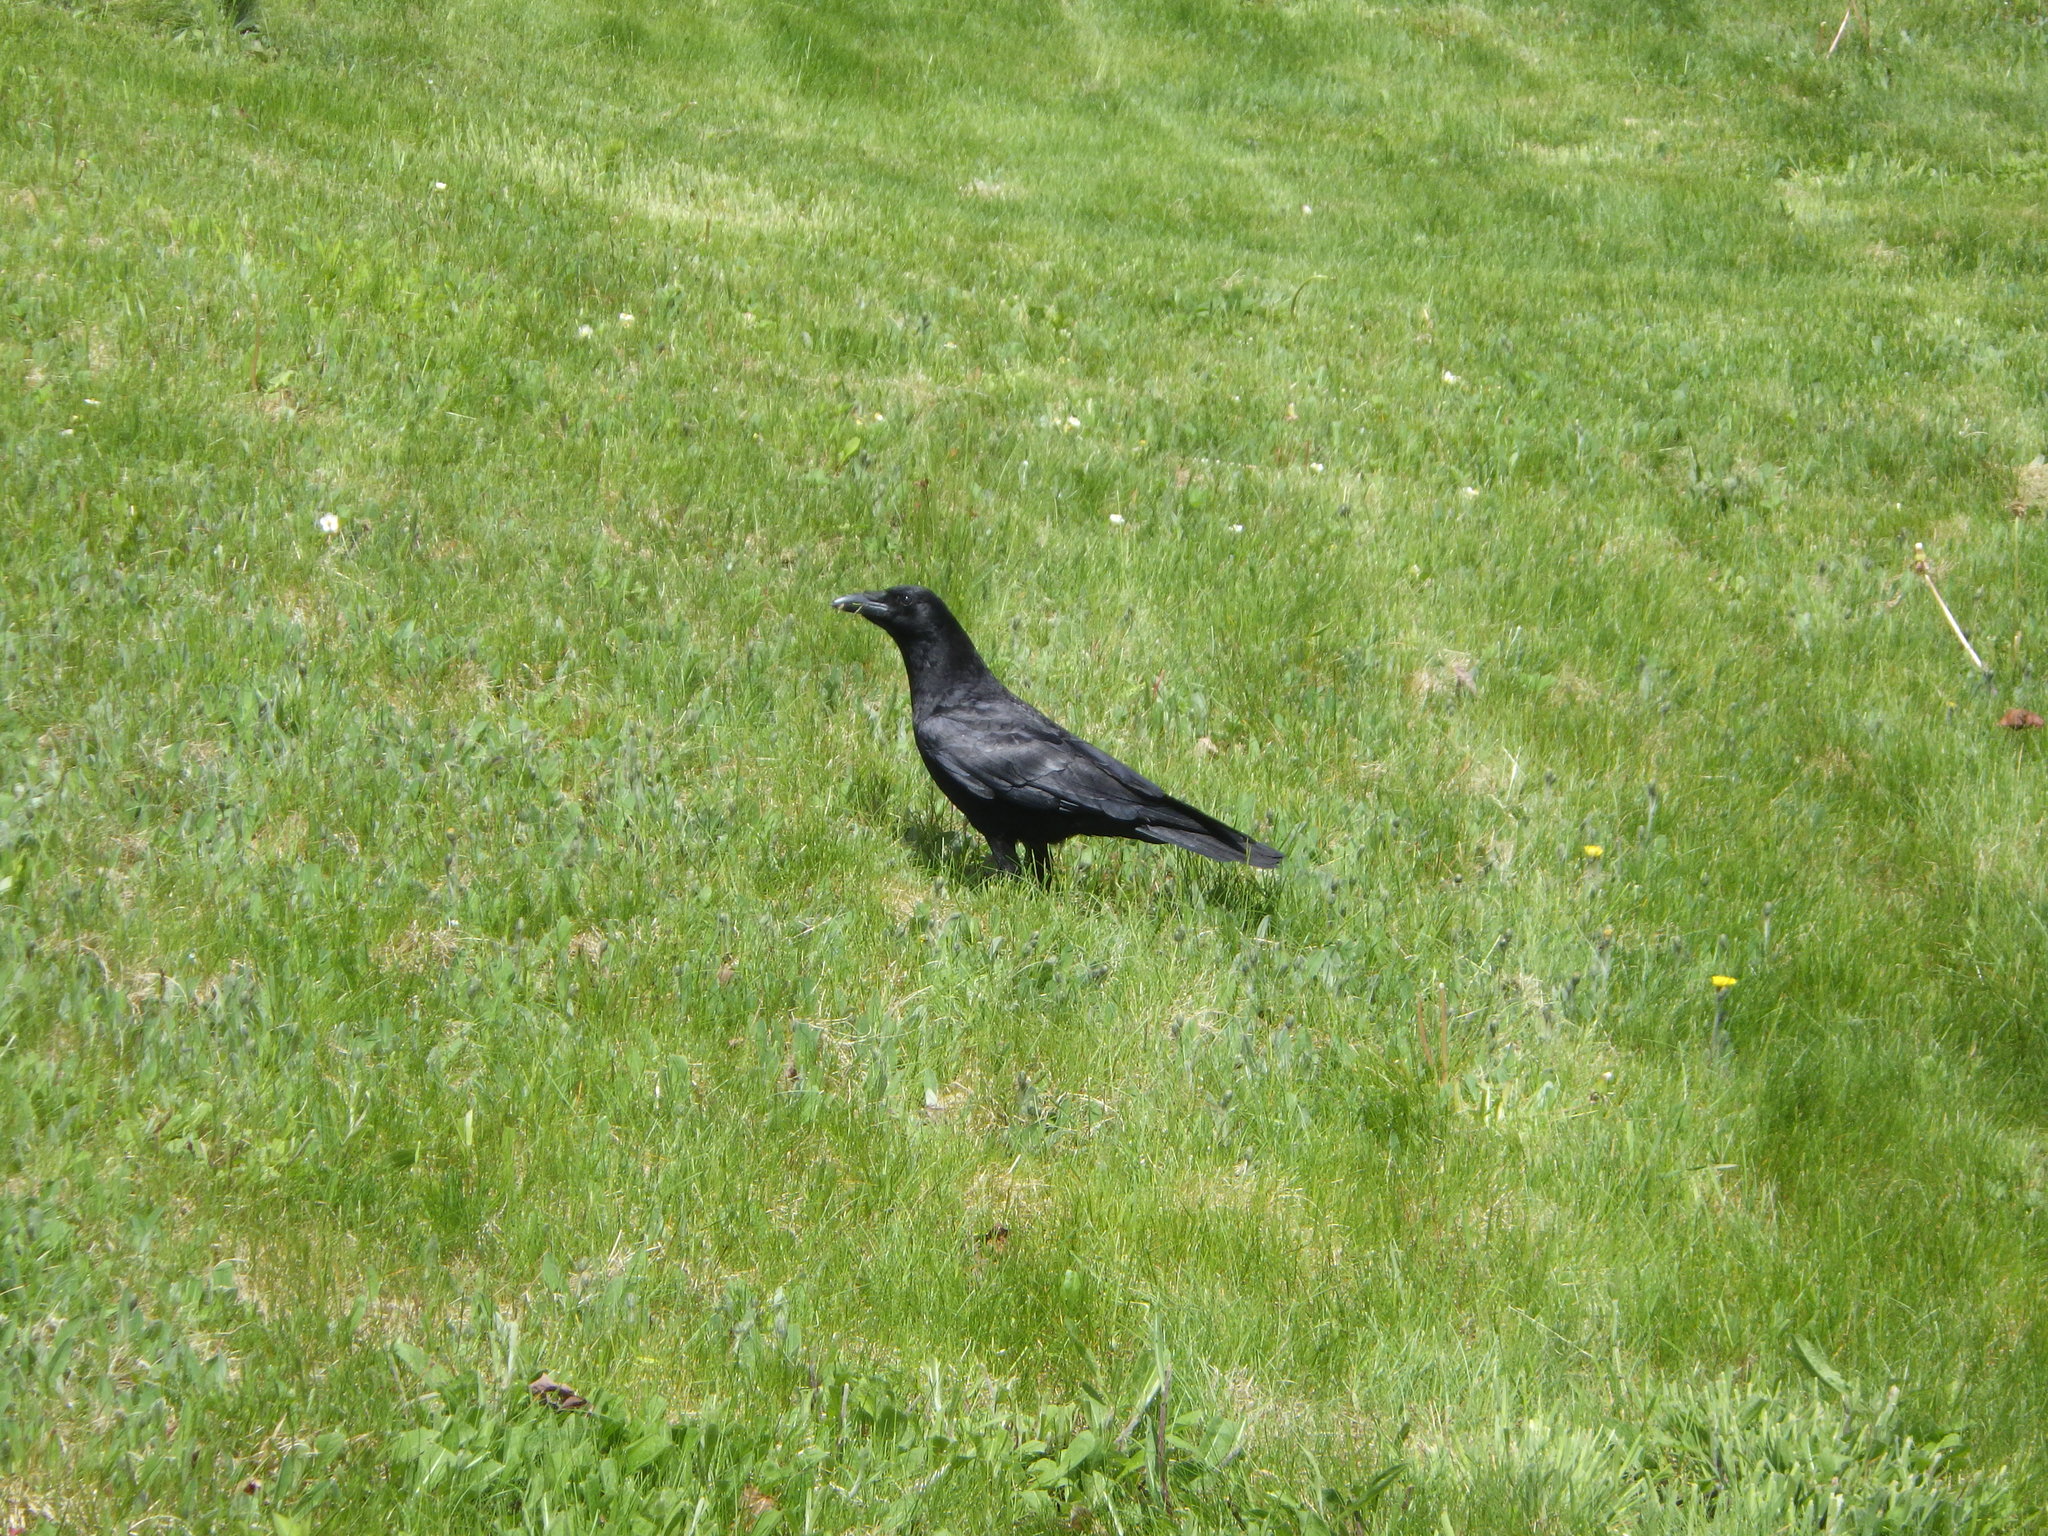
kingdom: Animalia
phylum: Chordata
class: Aves
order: Passeriformes
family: Corvidae
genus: Corvus
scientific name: Corvus brachyrhynchos
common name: American crow
